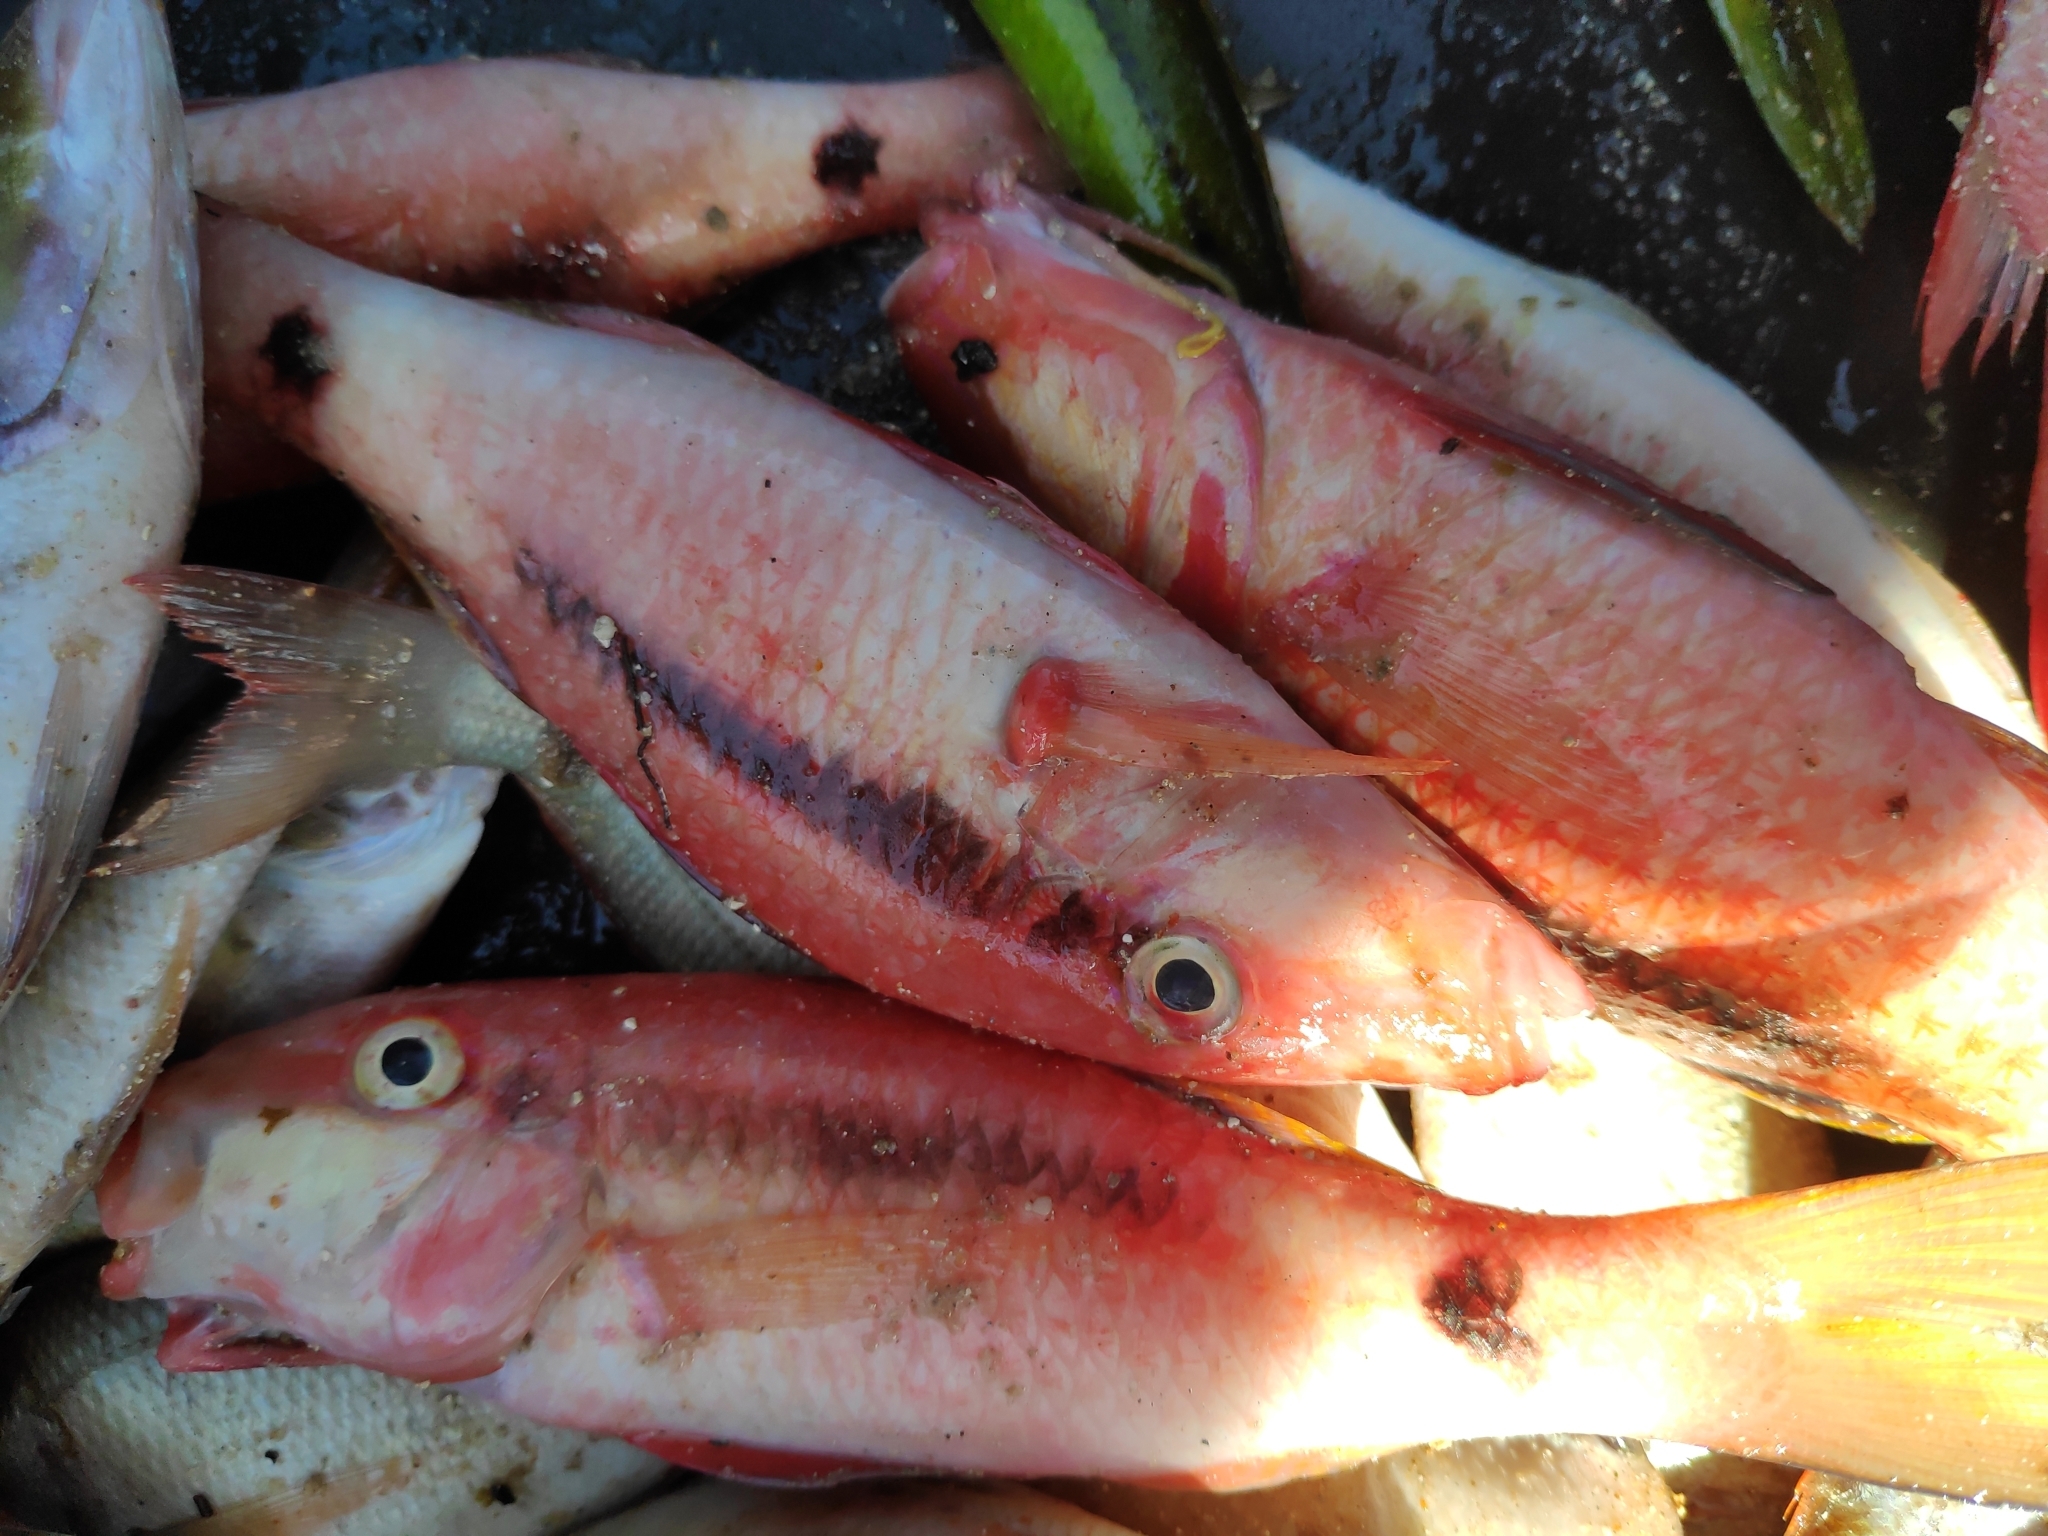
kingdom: Animalia
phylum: Chordata
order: Perciformes
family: Mullidae
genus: Parupeneus
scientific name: Parupeneus macronemus
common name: Long-barbel goatfish
